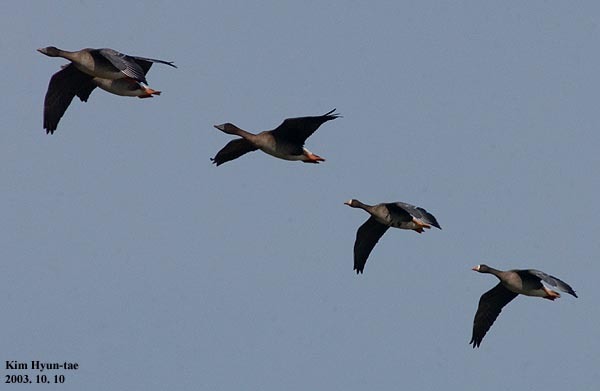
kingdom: Animalia
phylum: Chordata
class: Aves
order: Anseriformes
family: Anatidae
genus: Anser
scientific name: Anser albifrons
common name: Greater white-fronted goose
